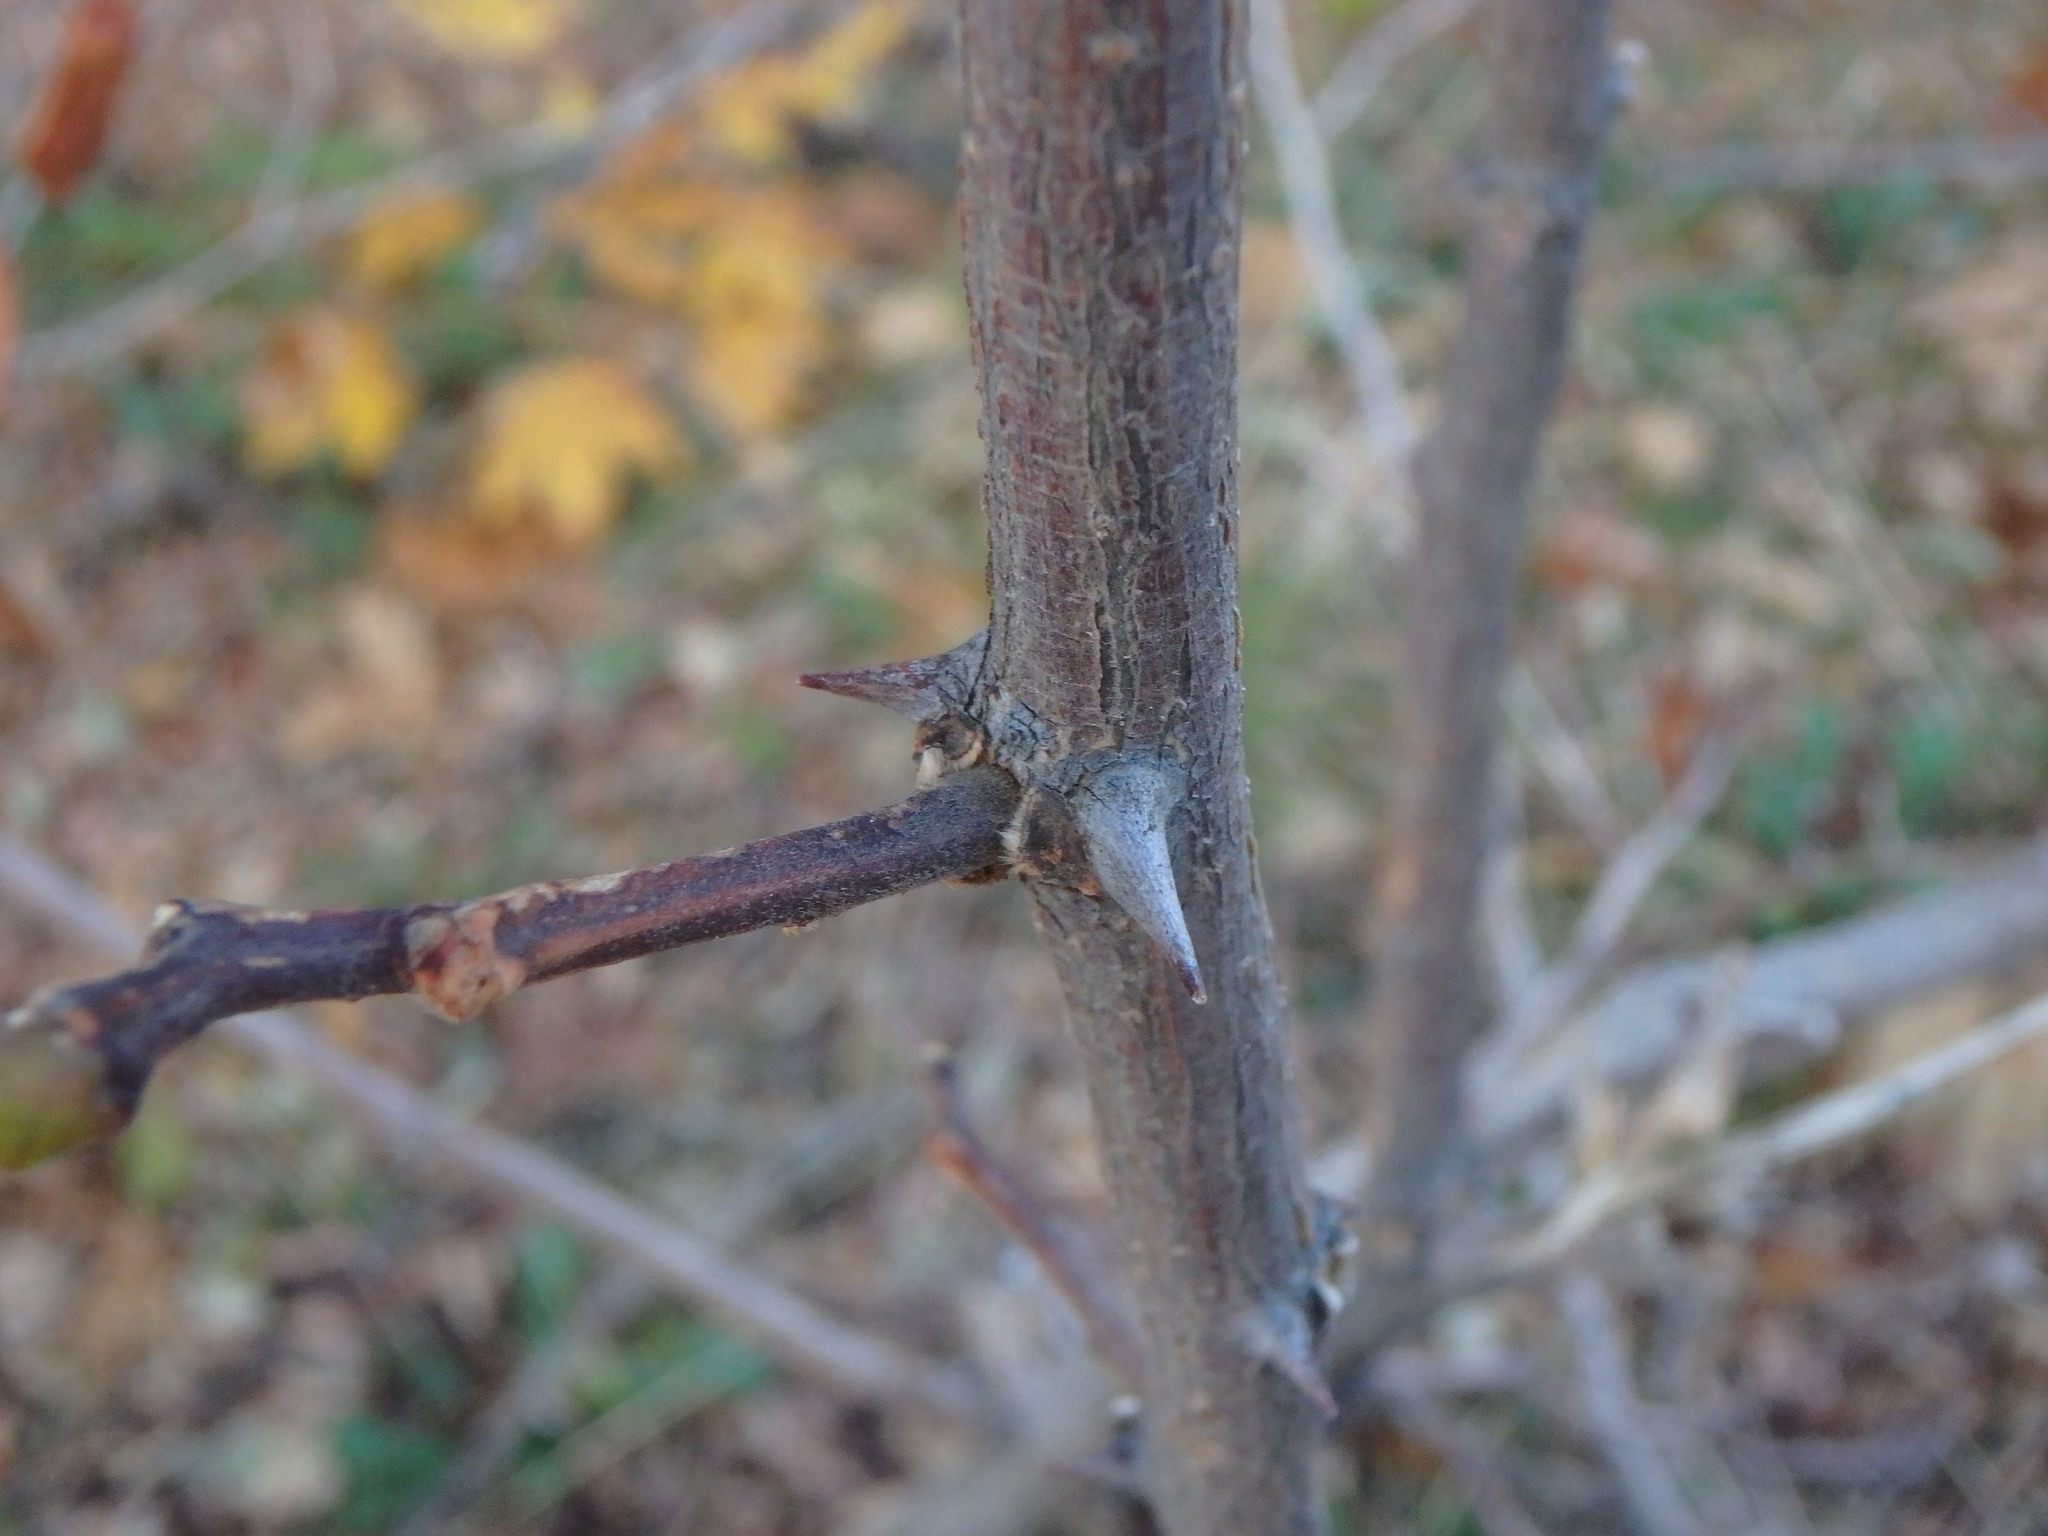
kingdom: Plantae
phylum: Tracheophyta
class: Magnoliopsida
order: Fabales
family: Fabaceae
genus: Robinia
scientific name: Robinia pseudoacacia
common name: Black locust
